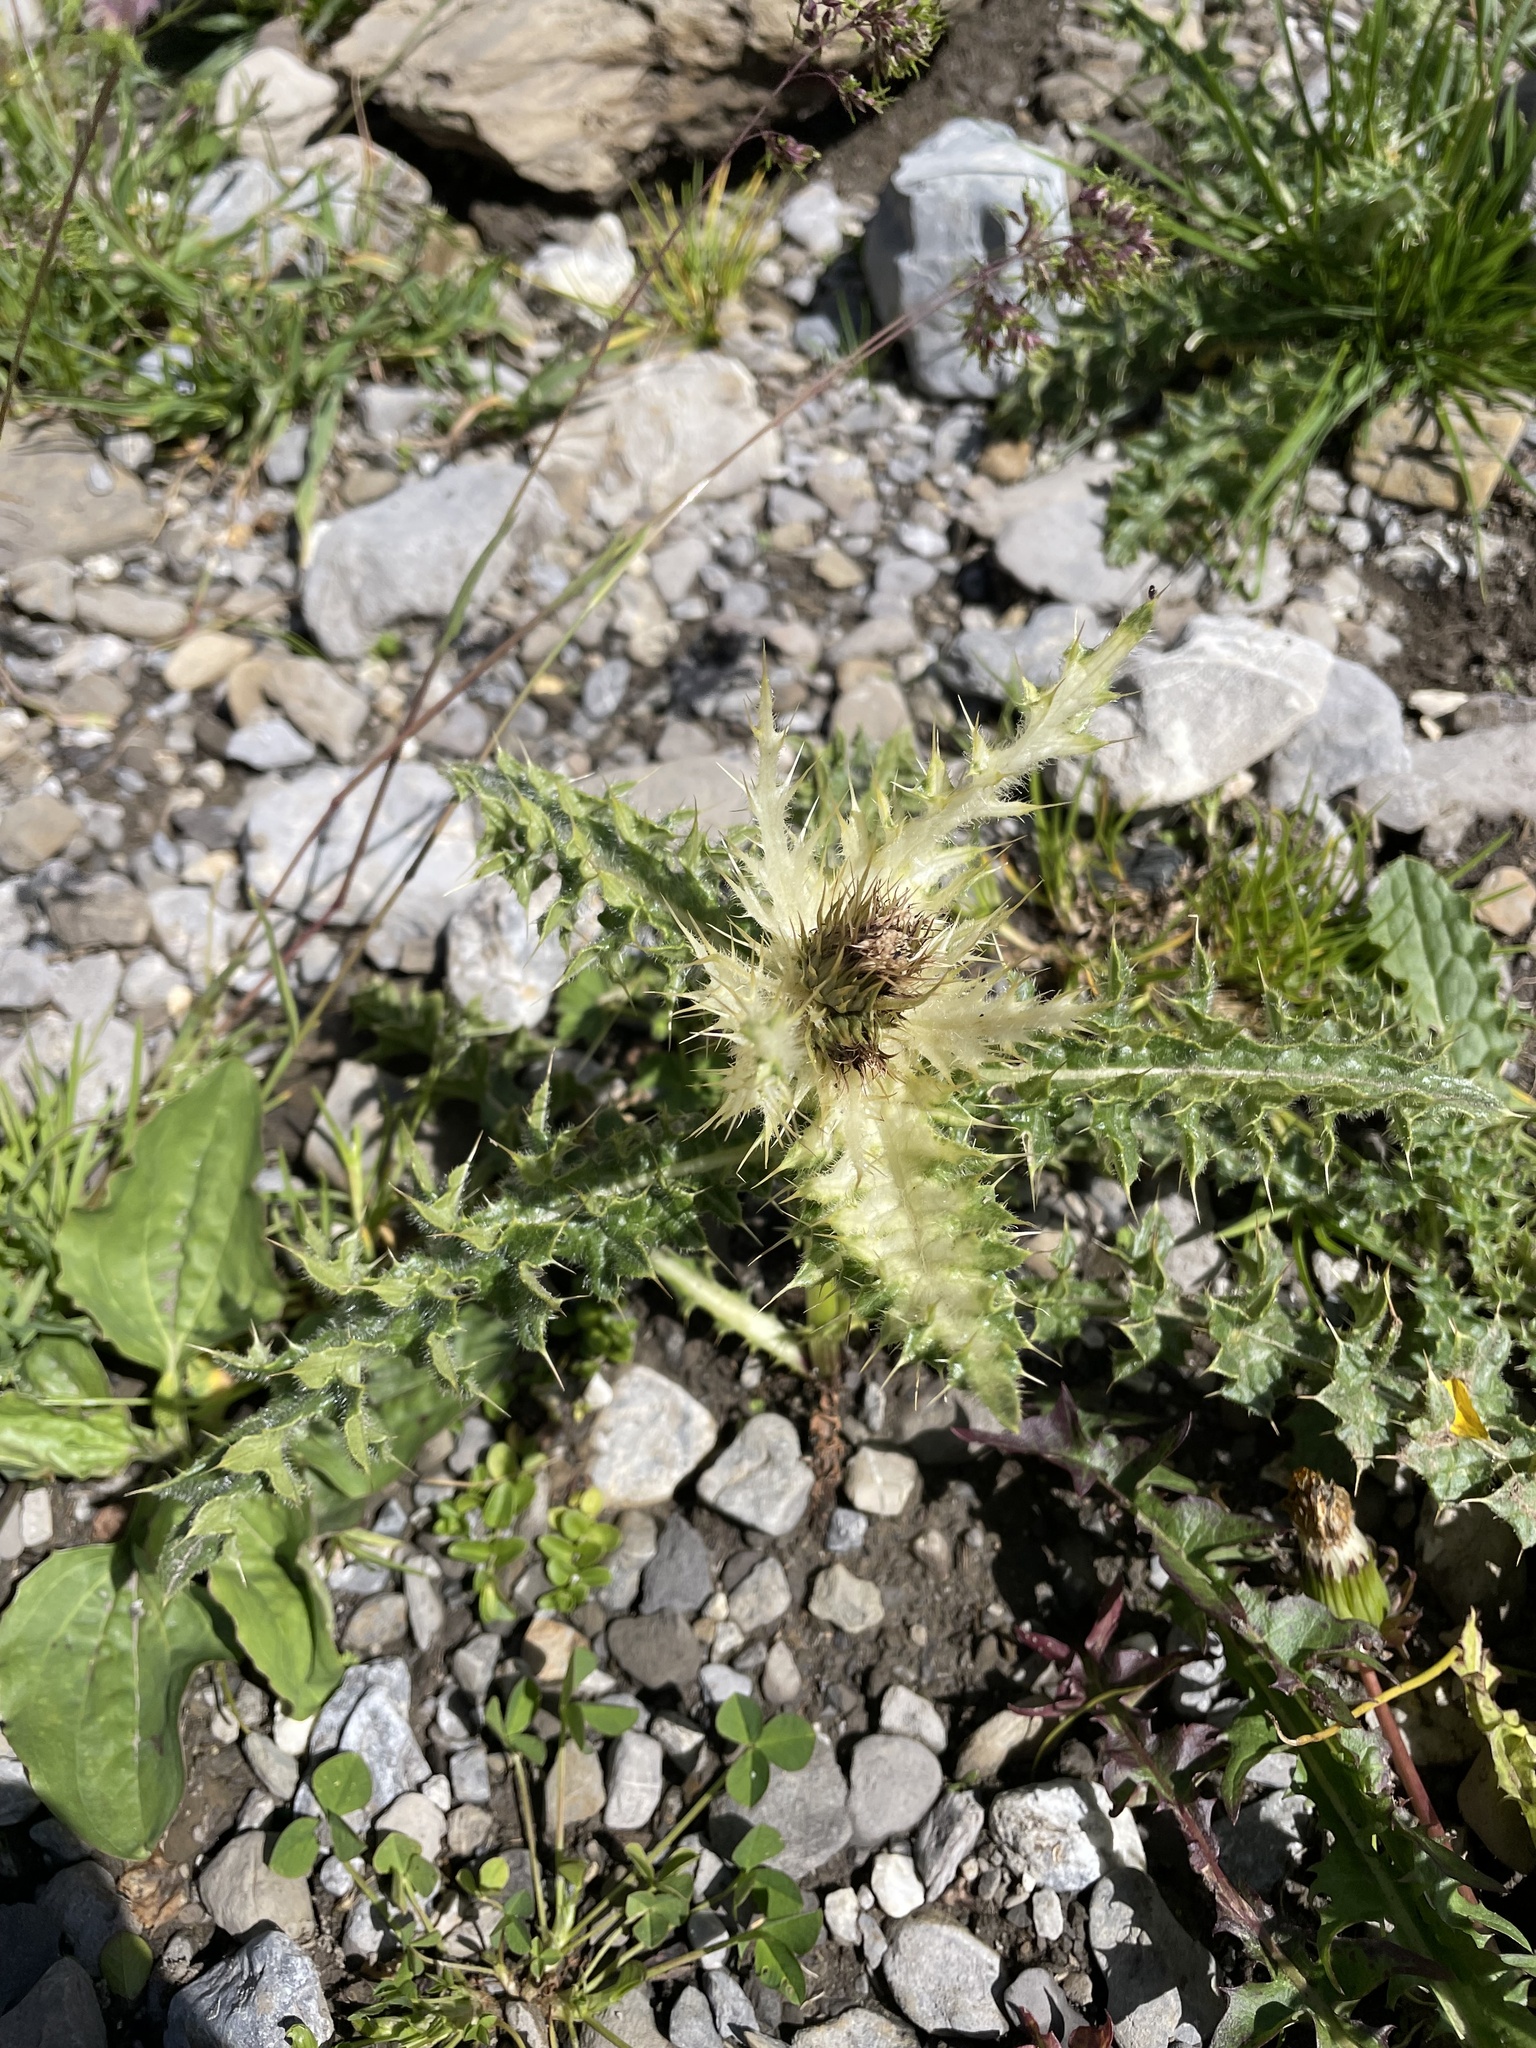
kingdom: Plantae
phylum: Tracheophyta
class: Magnoliopsida
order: Asterales
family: Asteraceae
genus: Cirsium
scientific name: Cirsium spinosissimum
